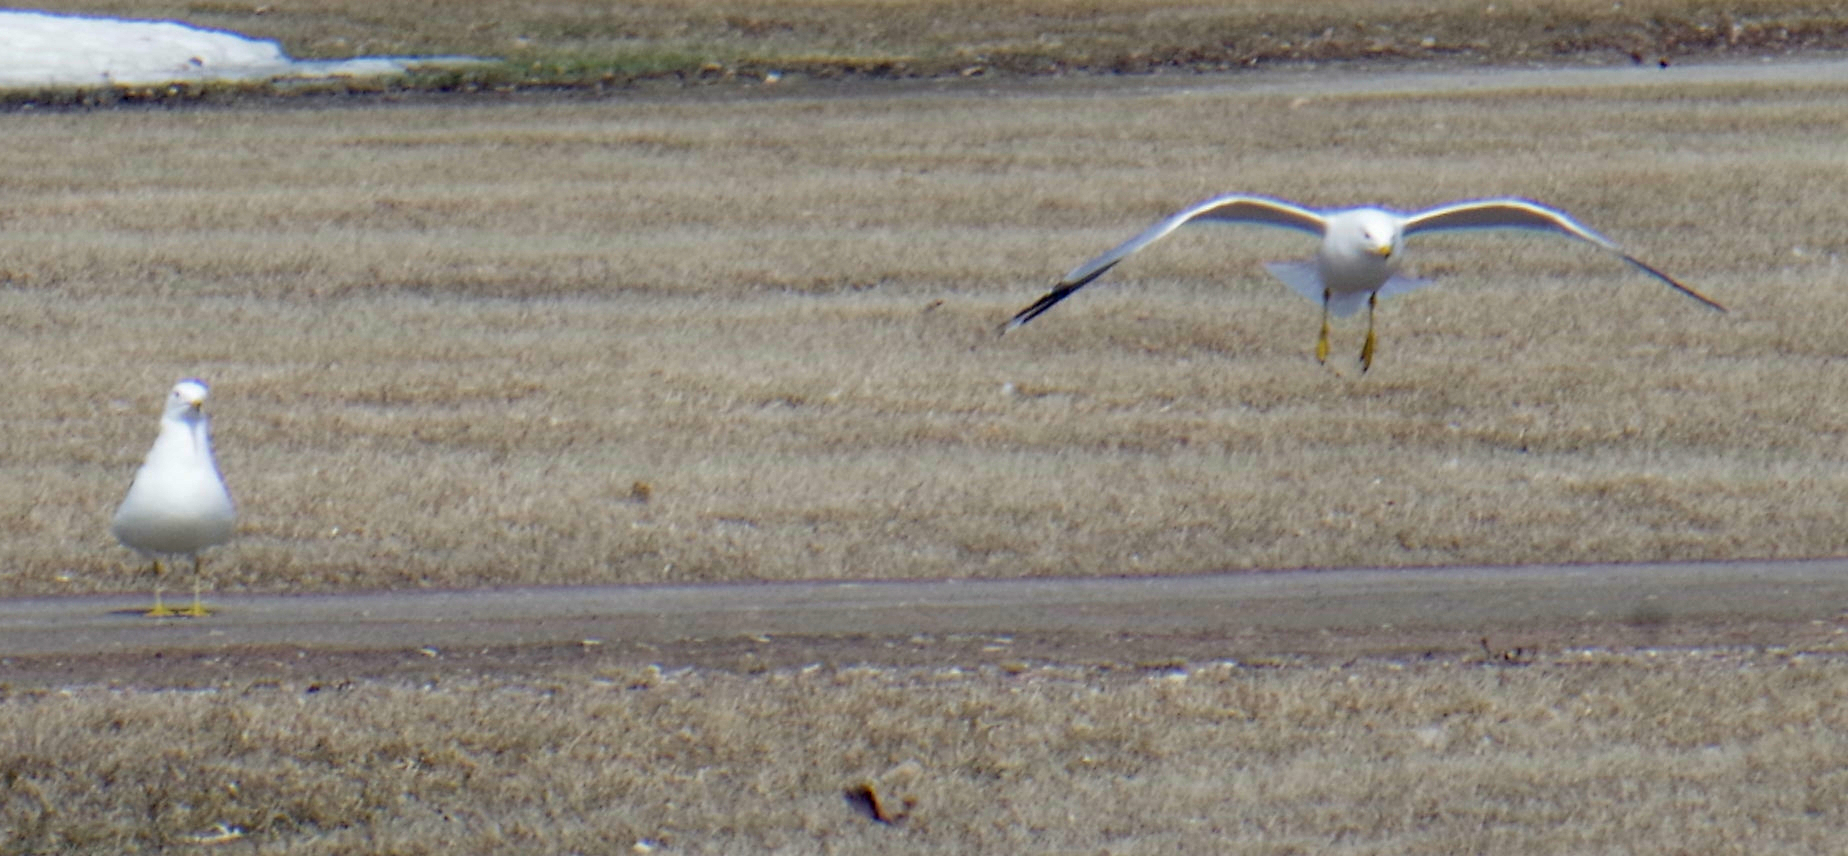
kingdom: Animalia
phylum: Chordata
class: Aves
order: Charadriiformes
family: Laridae
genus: Larus
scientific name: Larus delawarensis
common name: Ring-billed gull
